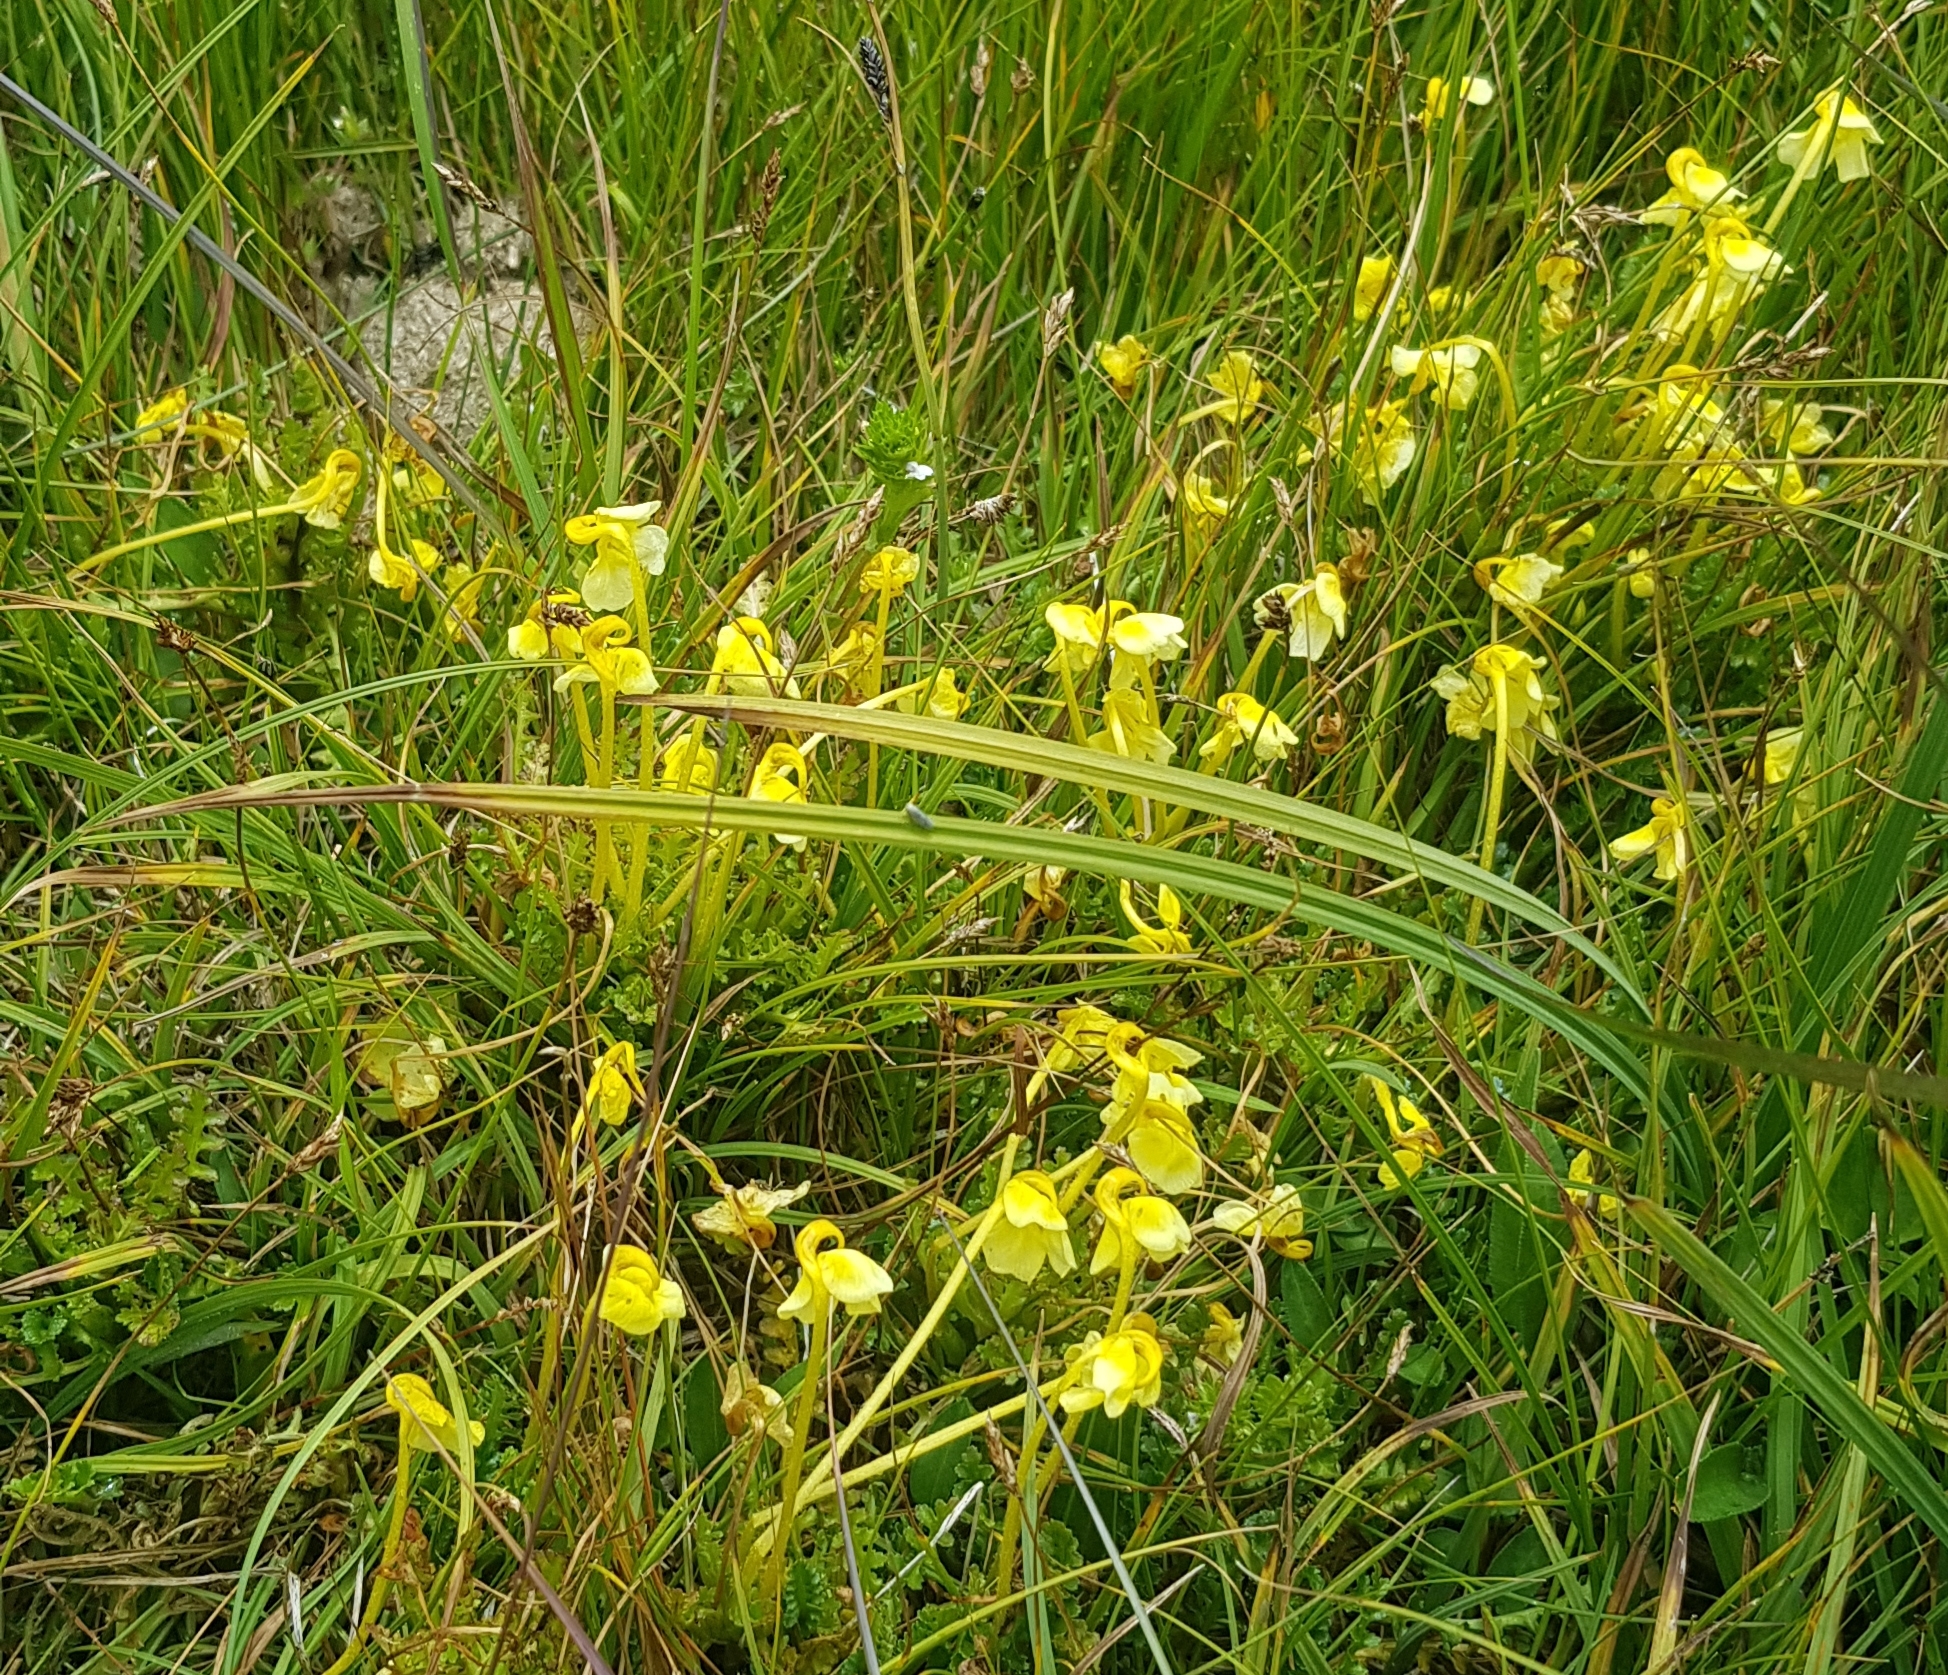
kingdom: Plantae
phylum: Tracheophyta
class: Magnoliopsida
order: Lamiales
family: Orobanchaceae
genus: Pedicularis
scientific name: Pedicularis longiflora
